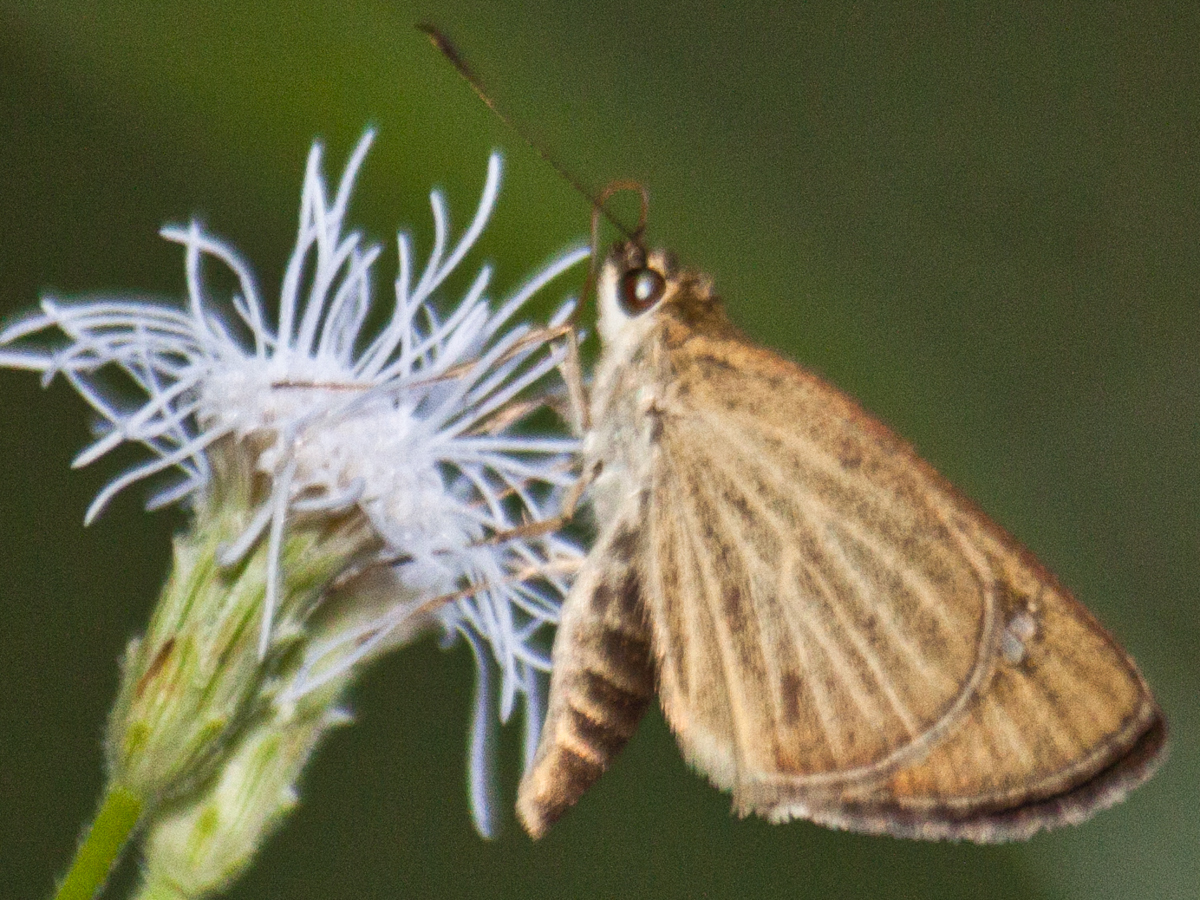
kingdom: Animalia
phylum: Arthropoda
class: Insecta
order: Lepidoptera
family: Hesperiidae
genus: Suada
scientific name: Suada swerga
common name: Grass bob
